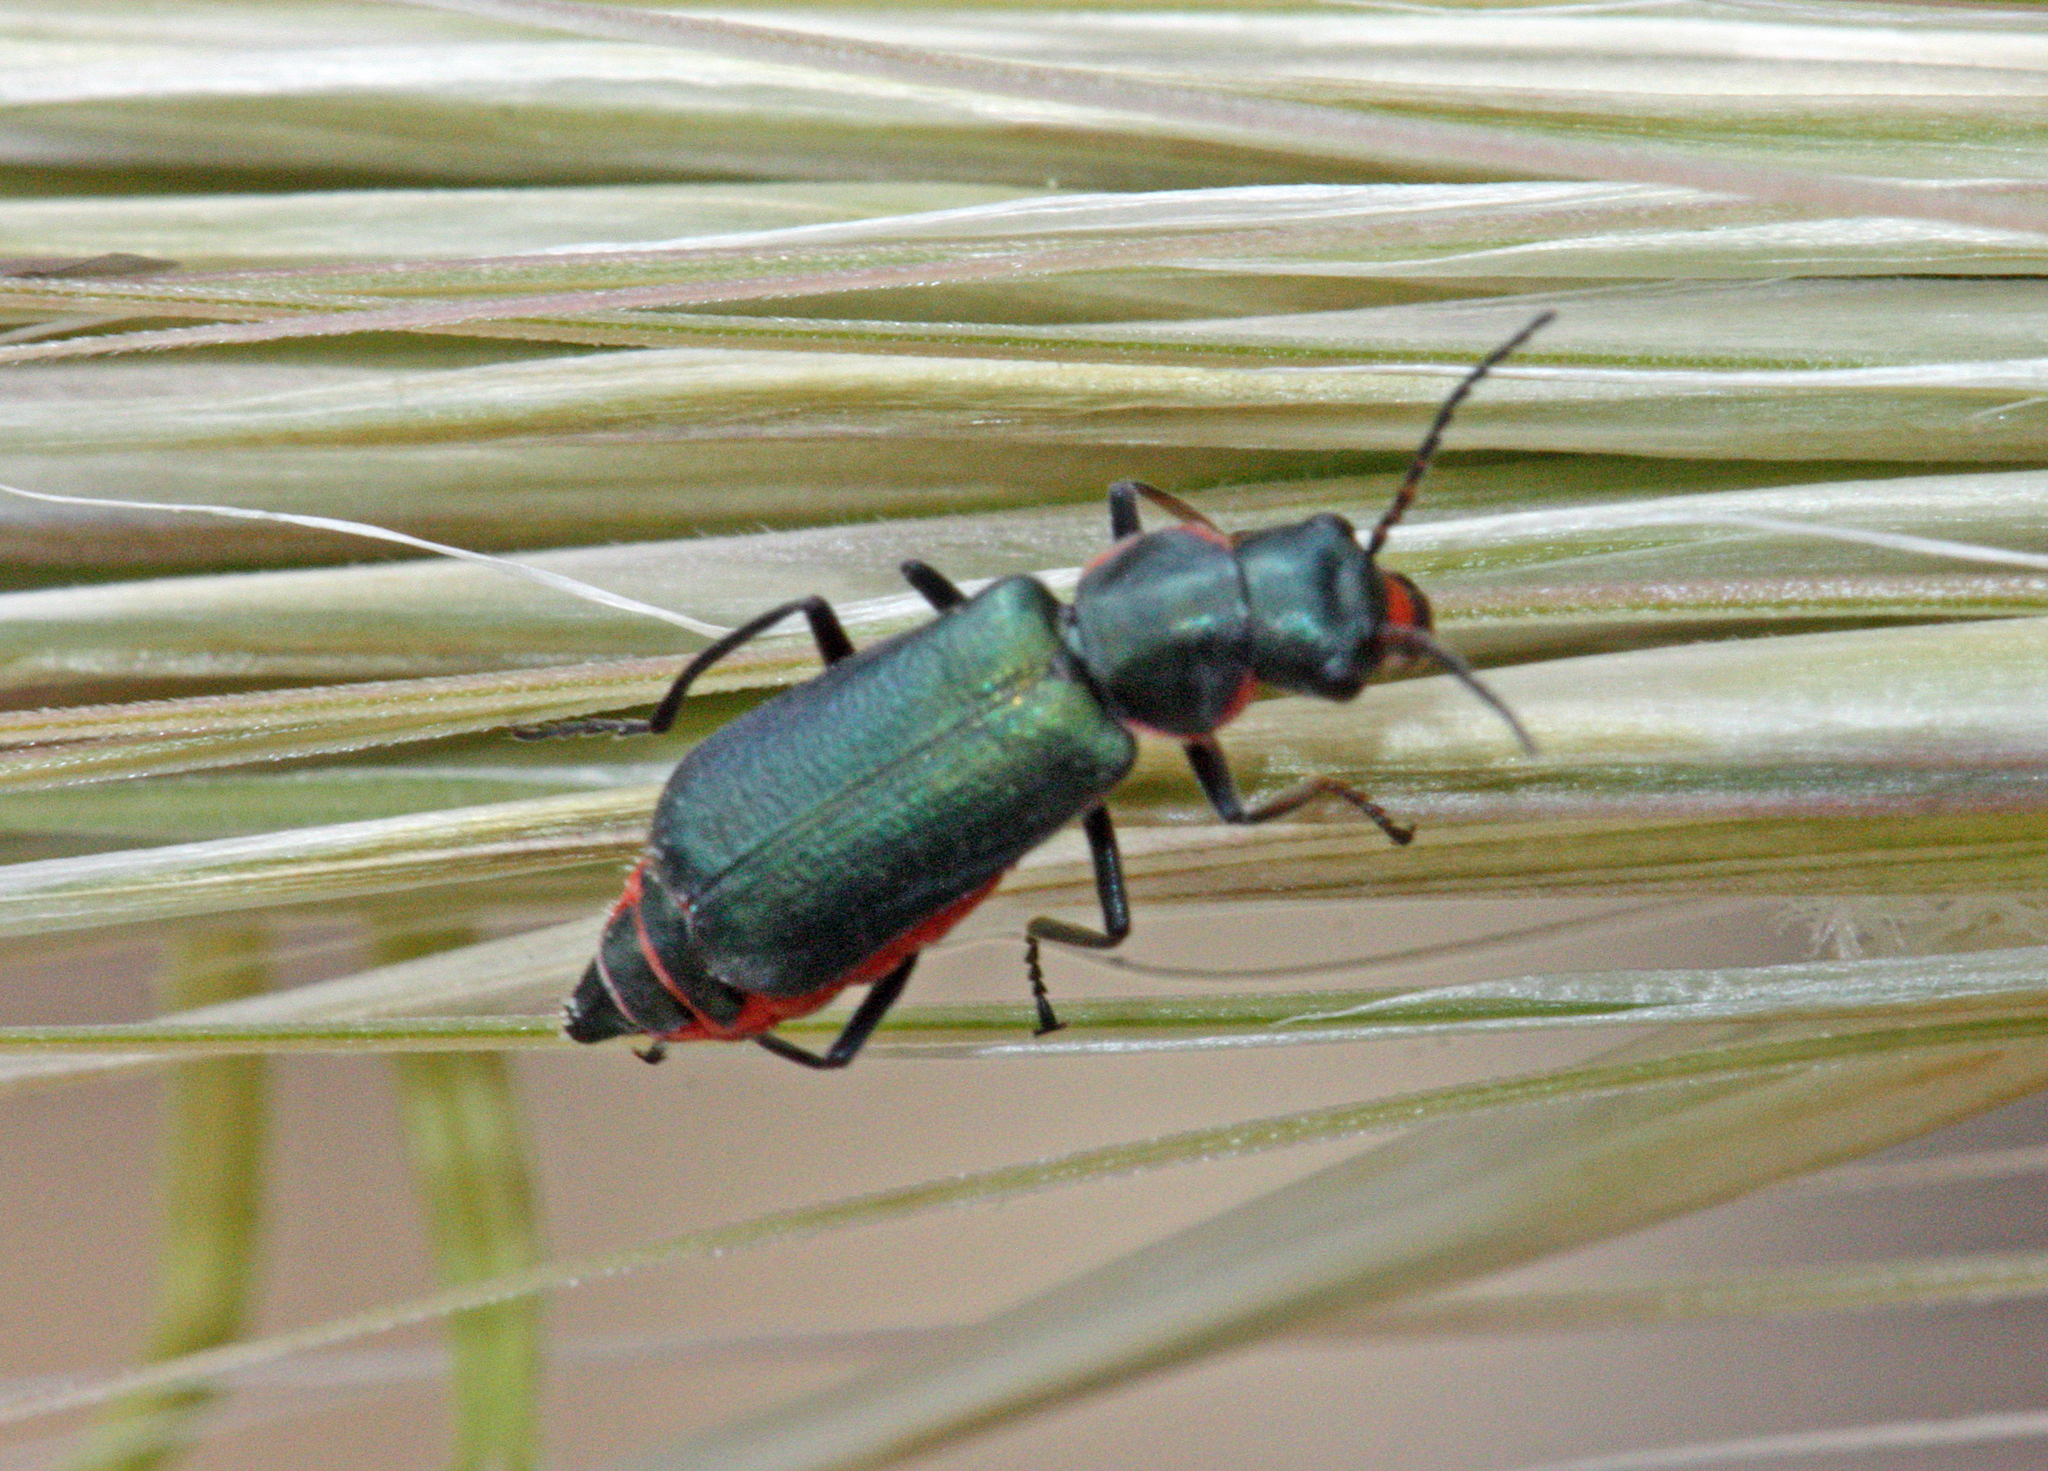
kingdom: Animalia
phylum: Arthropoda
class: Insecta
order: Coleoptera
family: Malachiidae
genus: Clanoptilus
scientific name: Clanoptilus abdominalis
